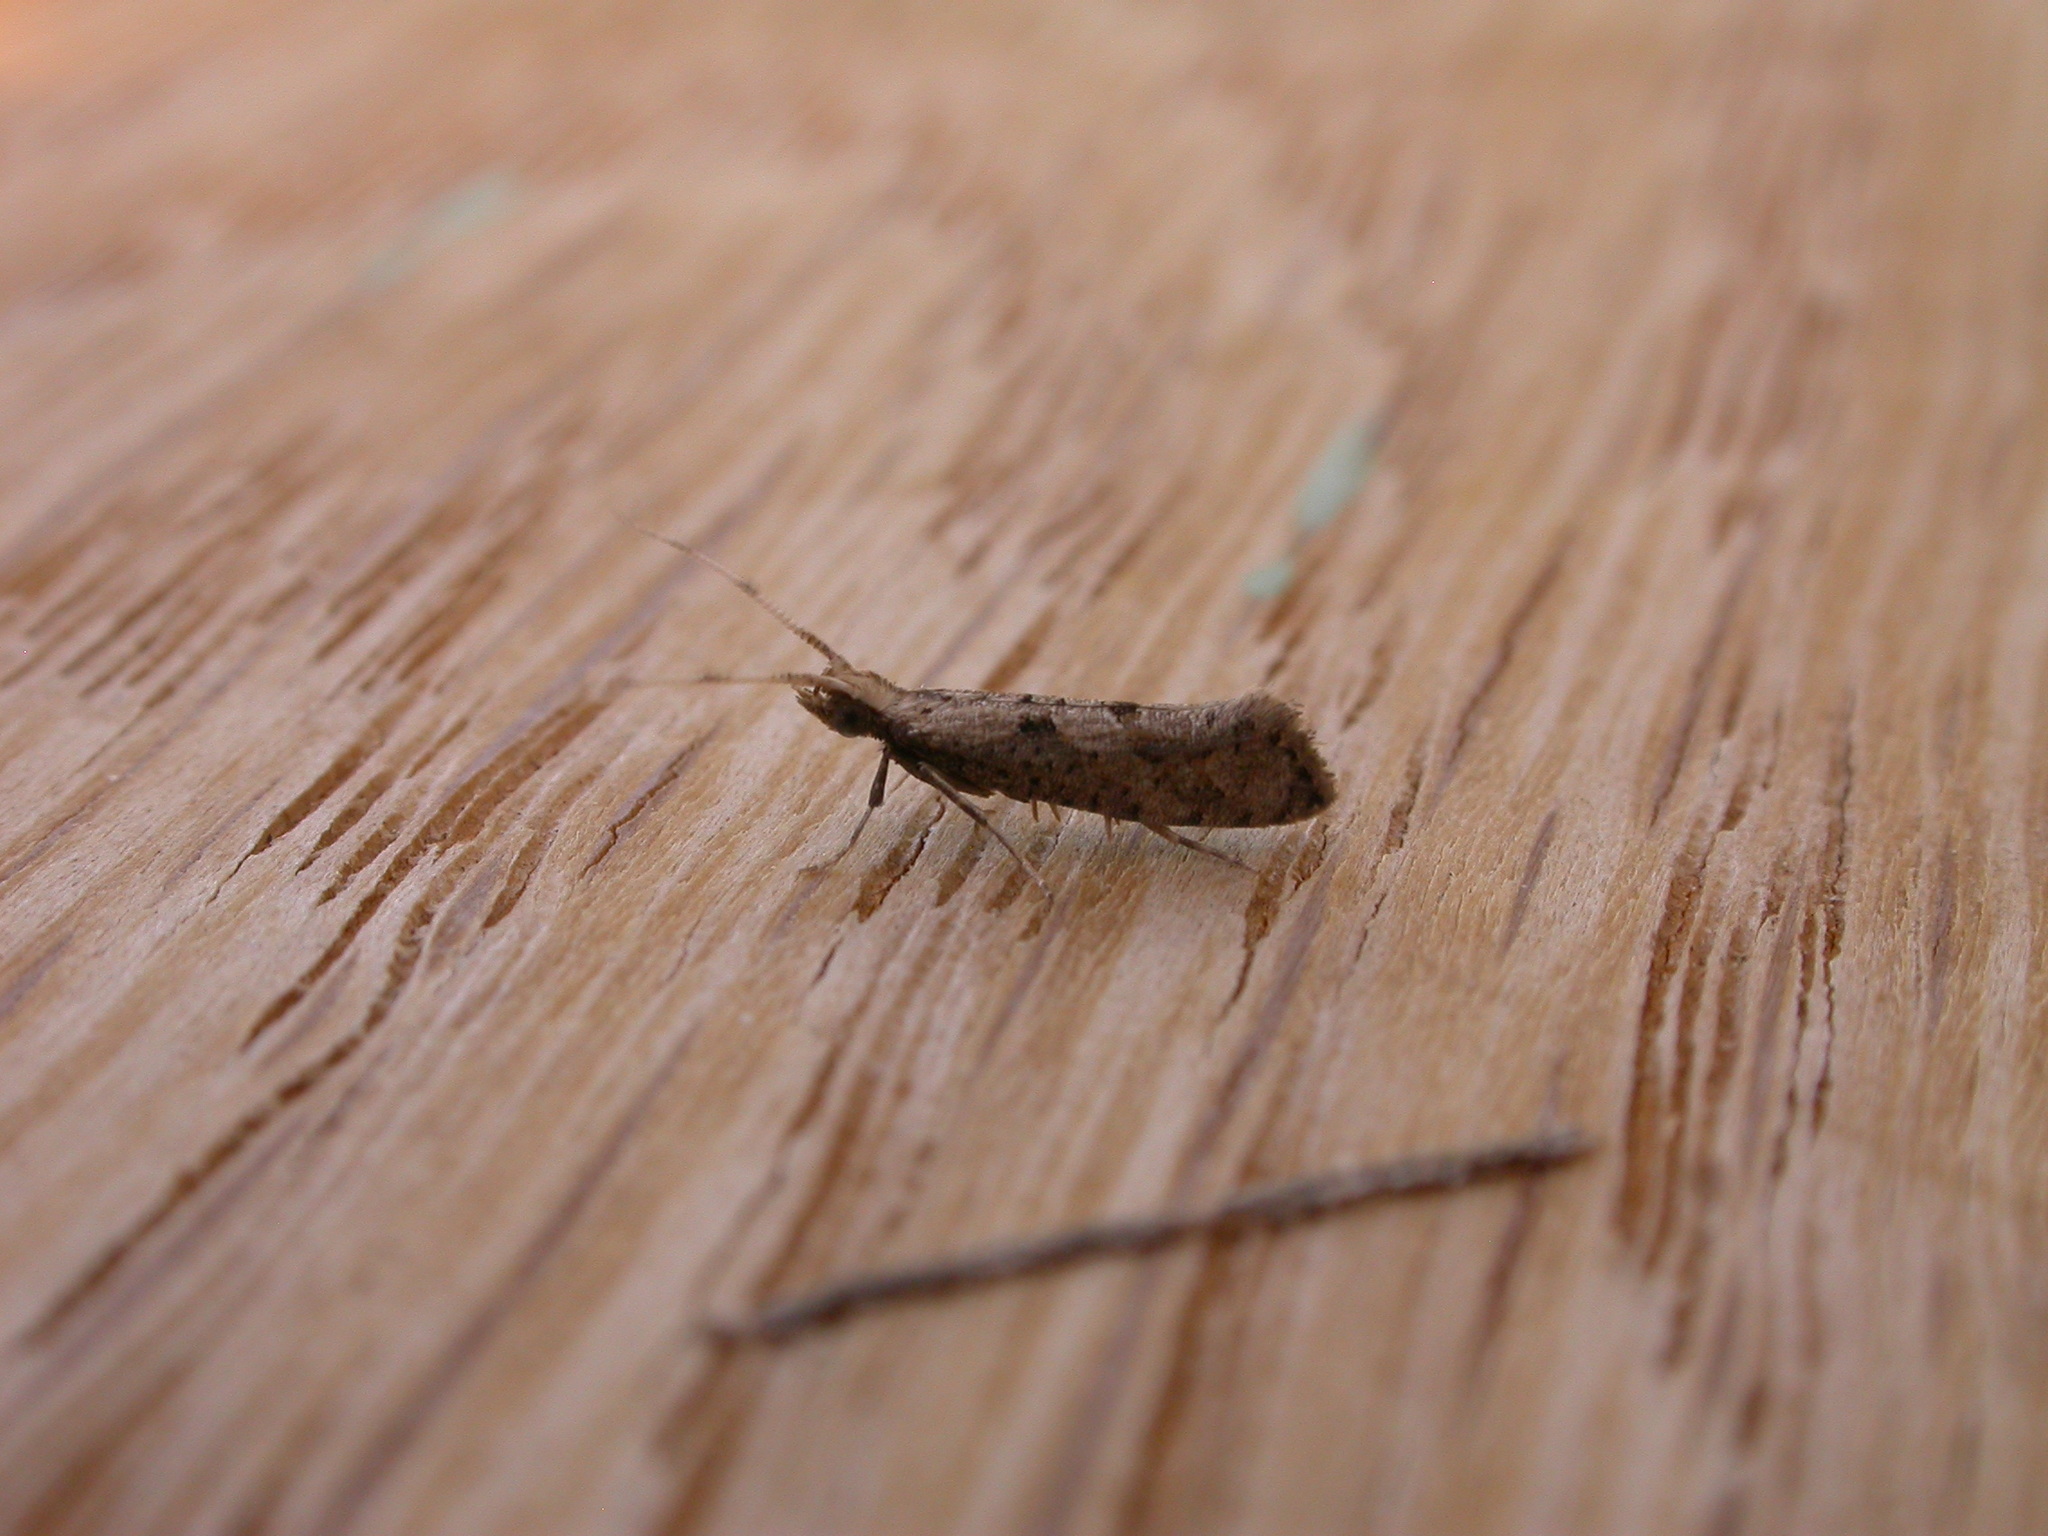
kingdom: Animalia
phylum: Arthropoda
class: Insecta
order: Lepidoptera
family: Plutellidae
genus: Leuroperna
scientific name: Leuroperna sera
